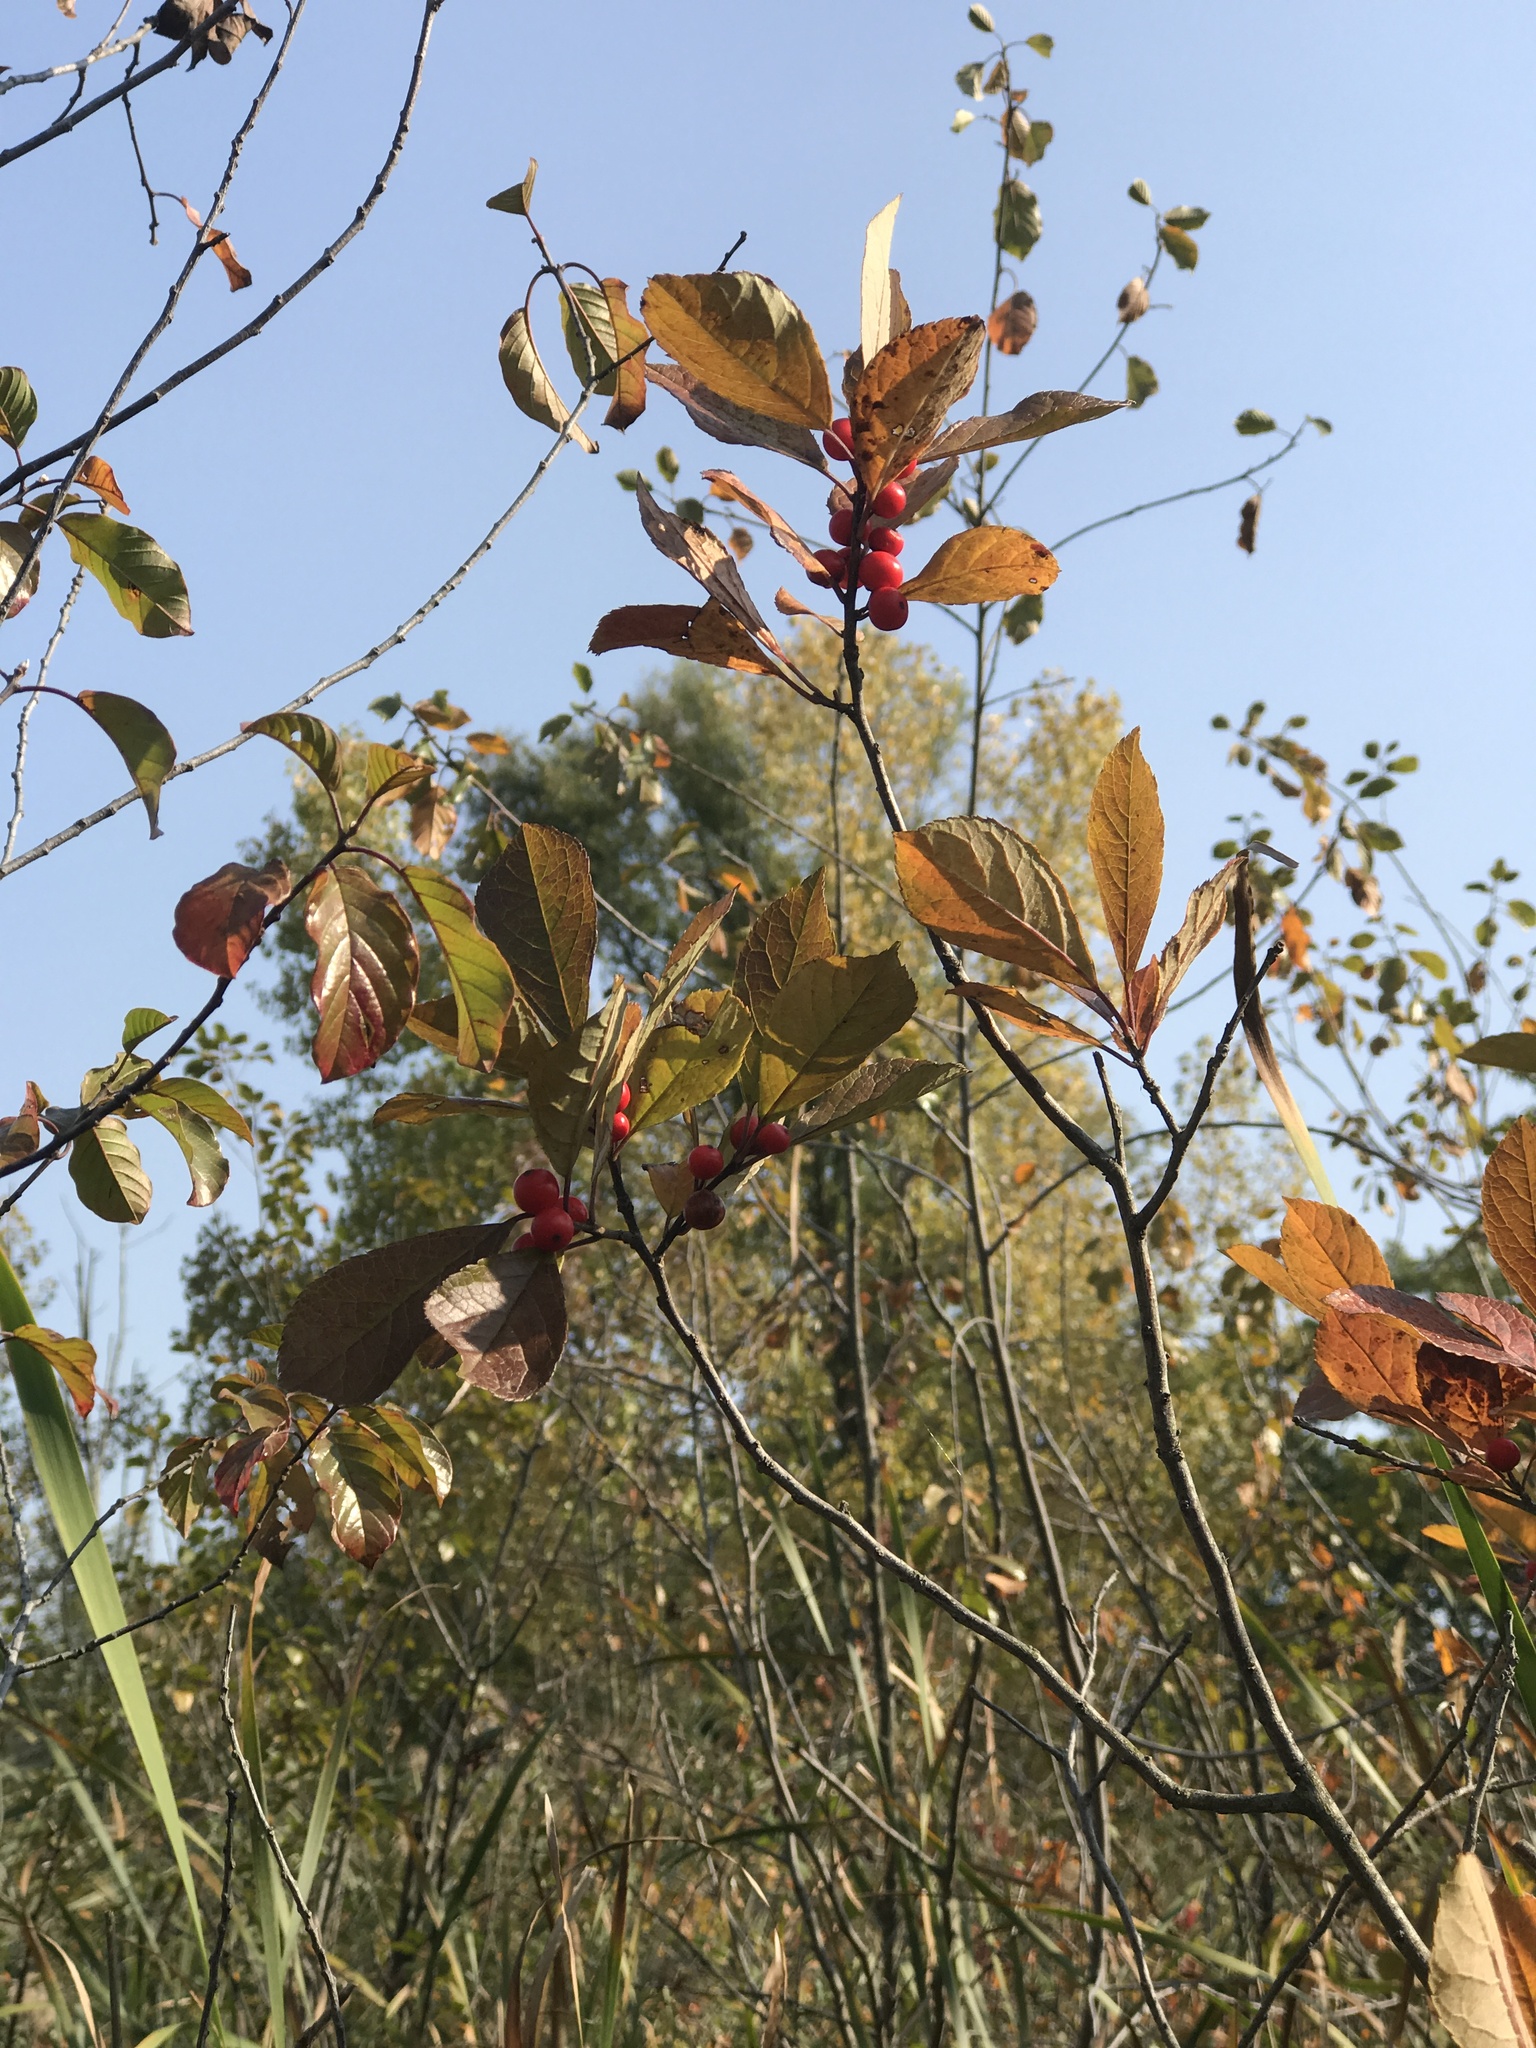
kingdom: Plantae
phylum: Tracheophyta
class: Magnoliopsida
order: Rosales
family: Rhamnaceae
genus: Frangula
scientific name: Frangula alnus
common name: Alder buckthorn
